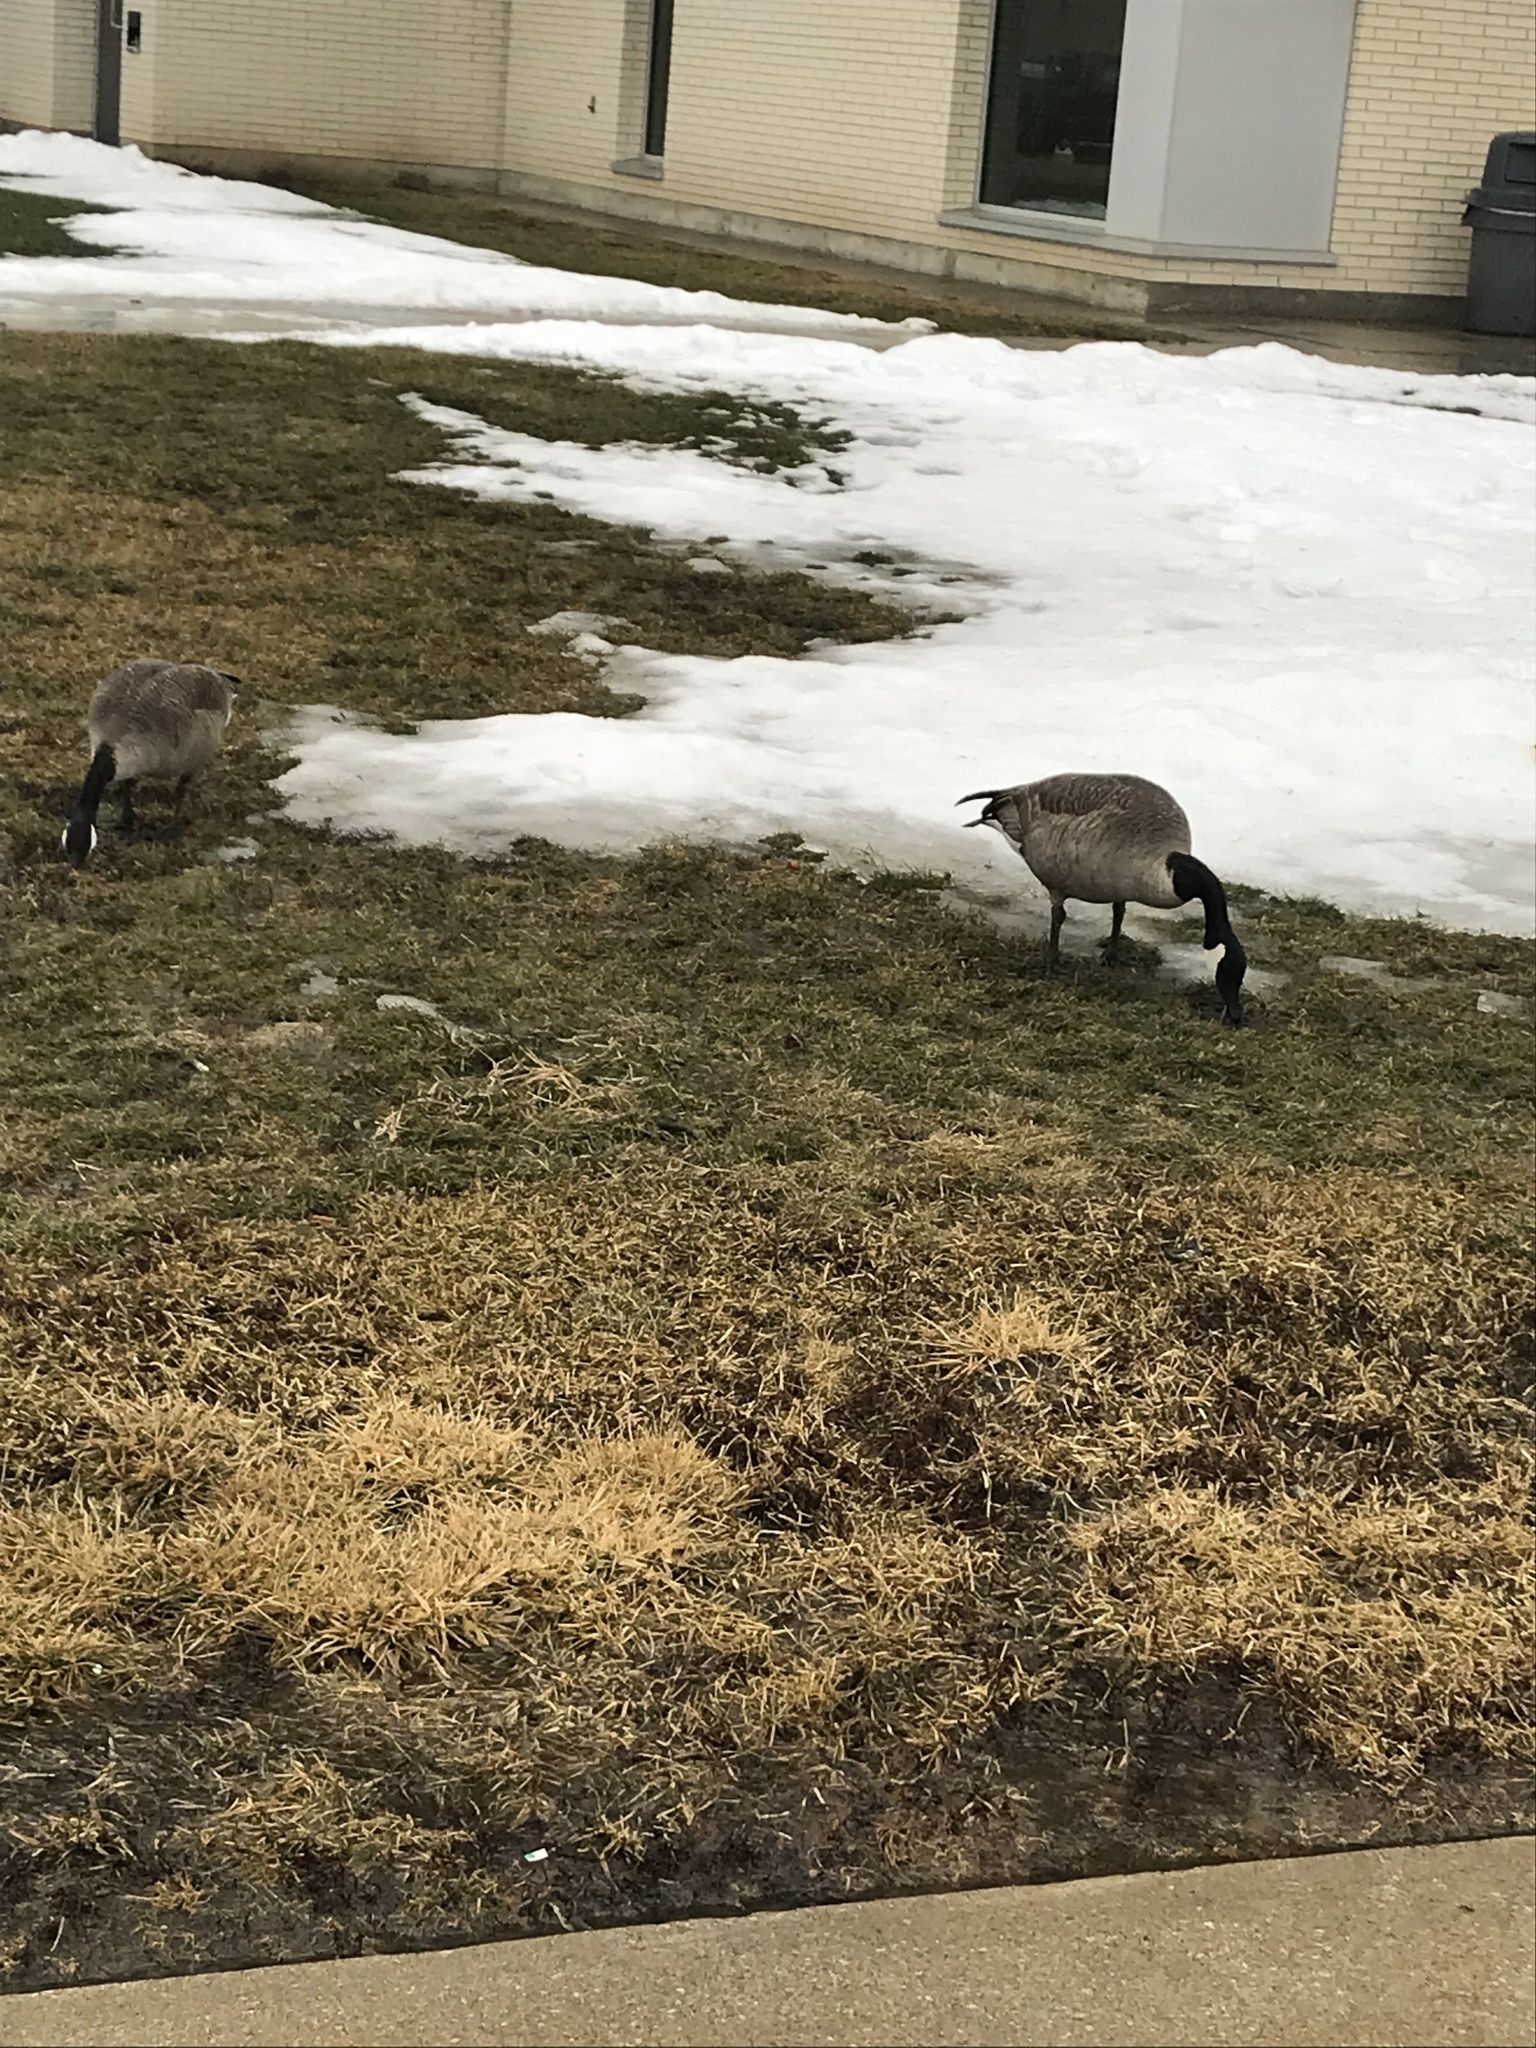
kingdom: Animalia
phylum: Chordata
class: Aves
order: Anseriformes
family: Anatidae
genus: Branta
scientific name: Branta canadensis
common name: Canada goose
